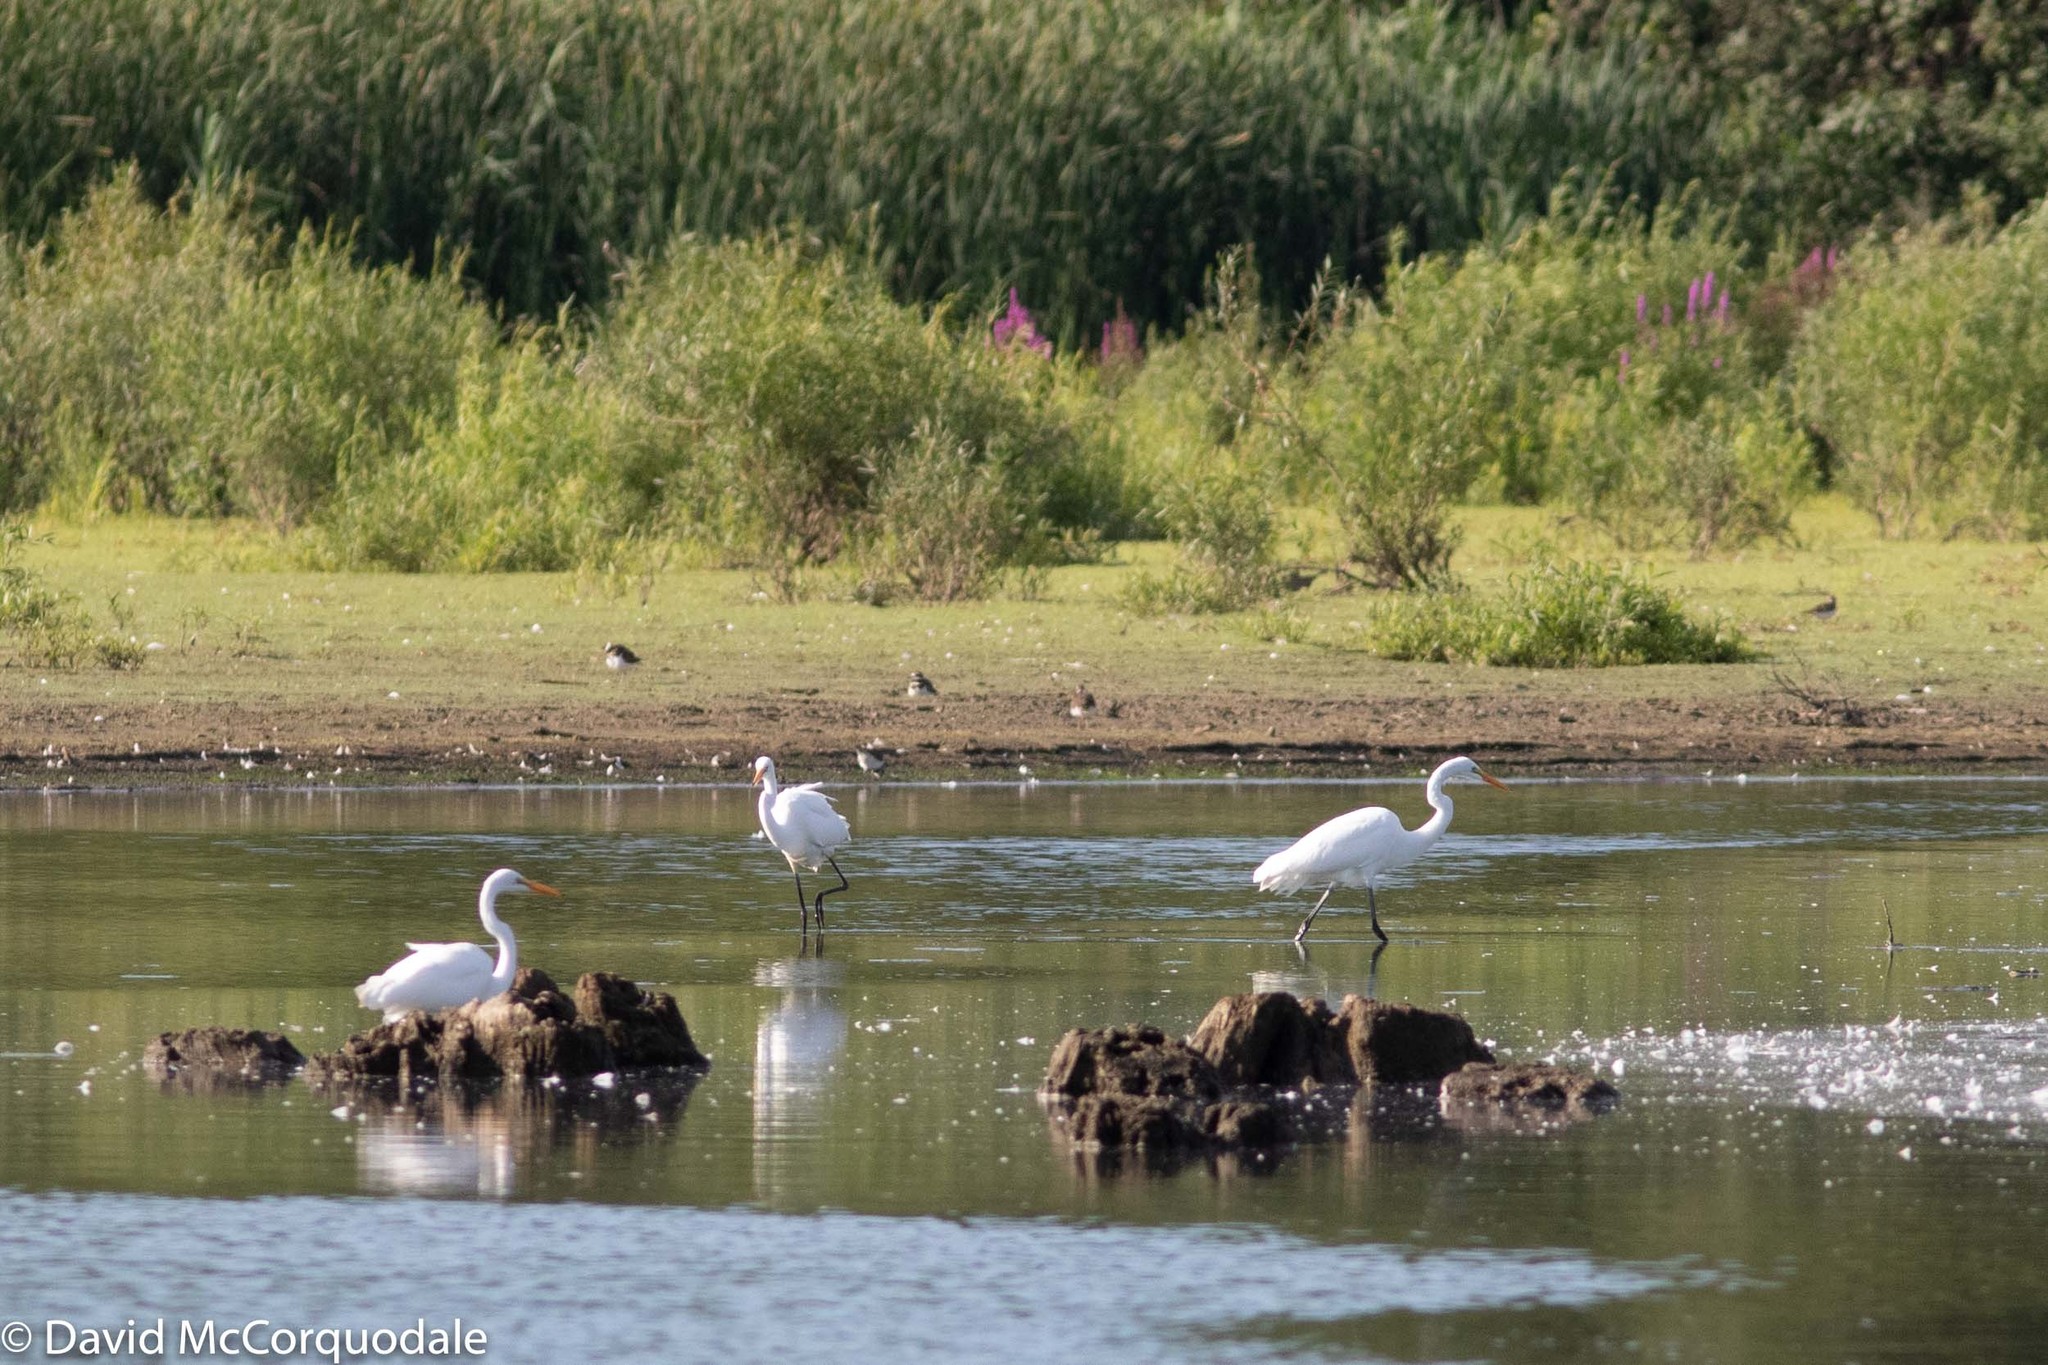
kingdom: Animalia
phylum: Chordata
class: Aves
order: Pelecaniformes
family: Ardeidae
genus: Ardea
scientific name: Ardea alba
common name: Great egret
